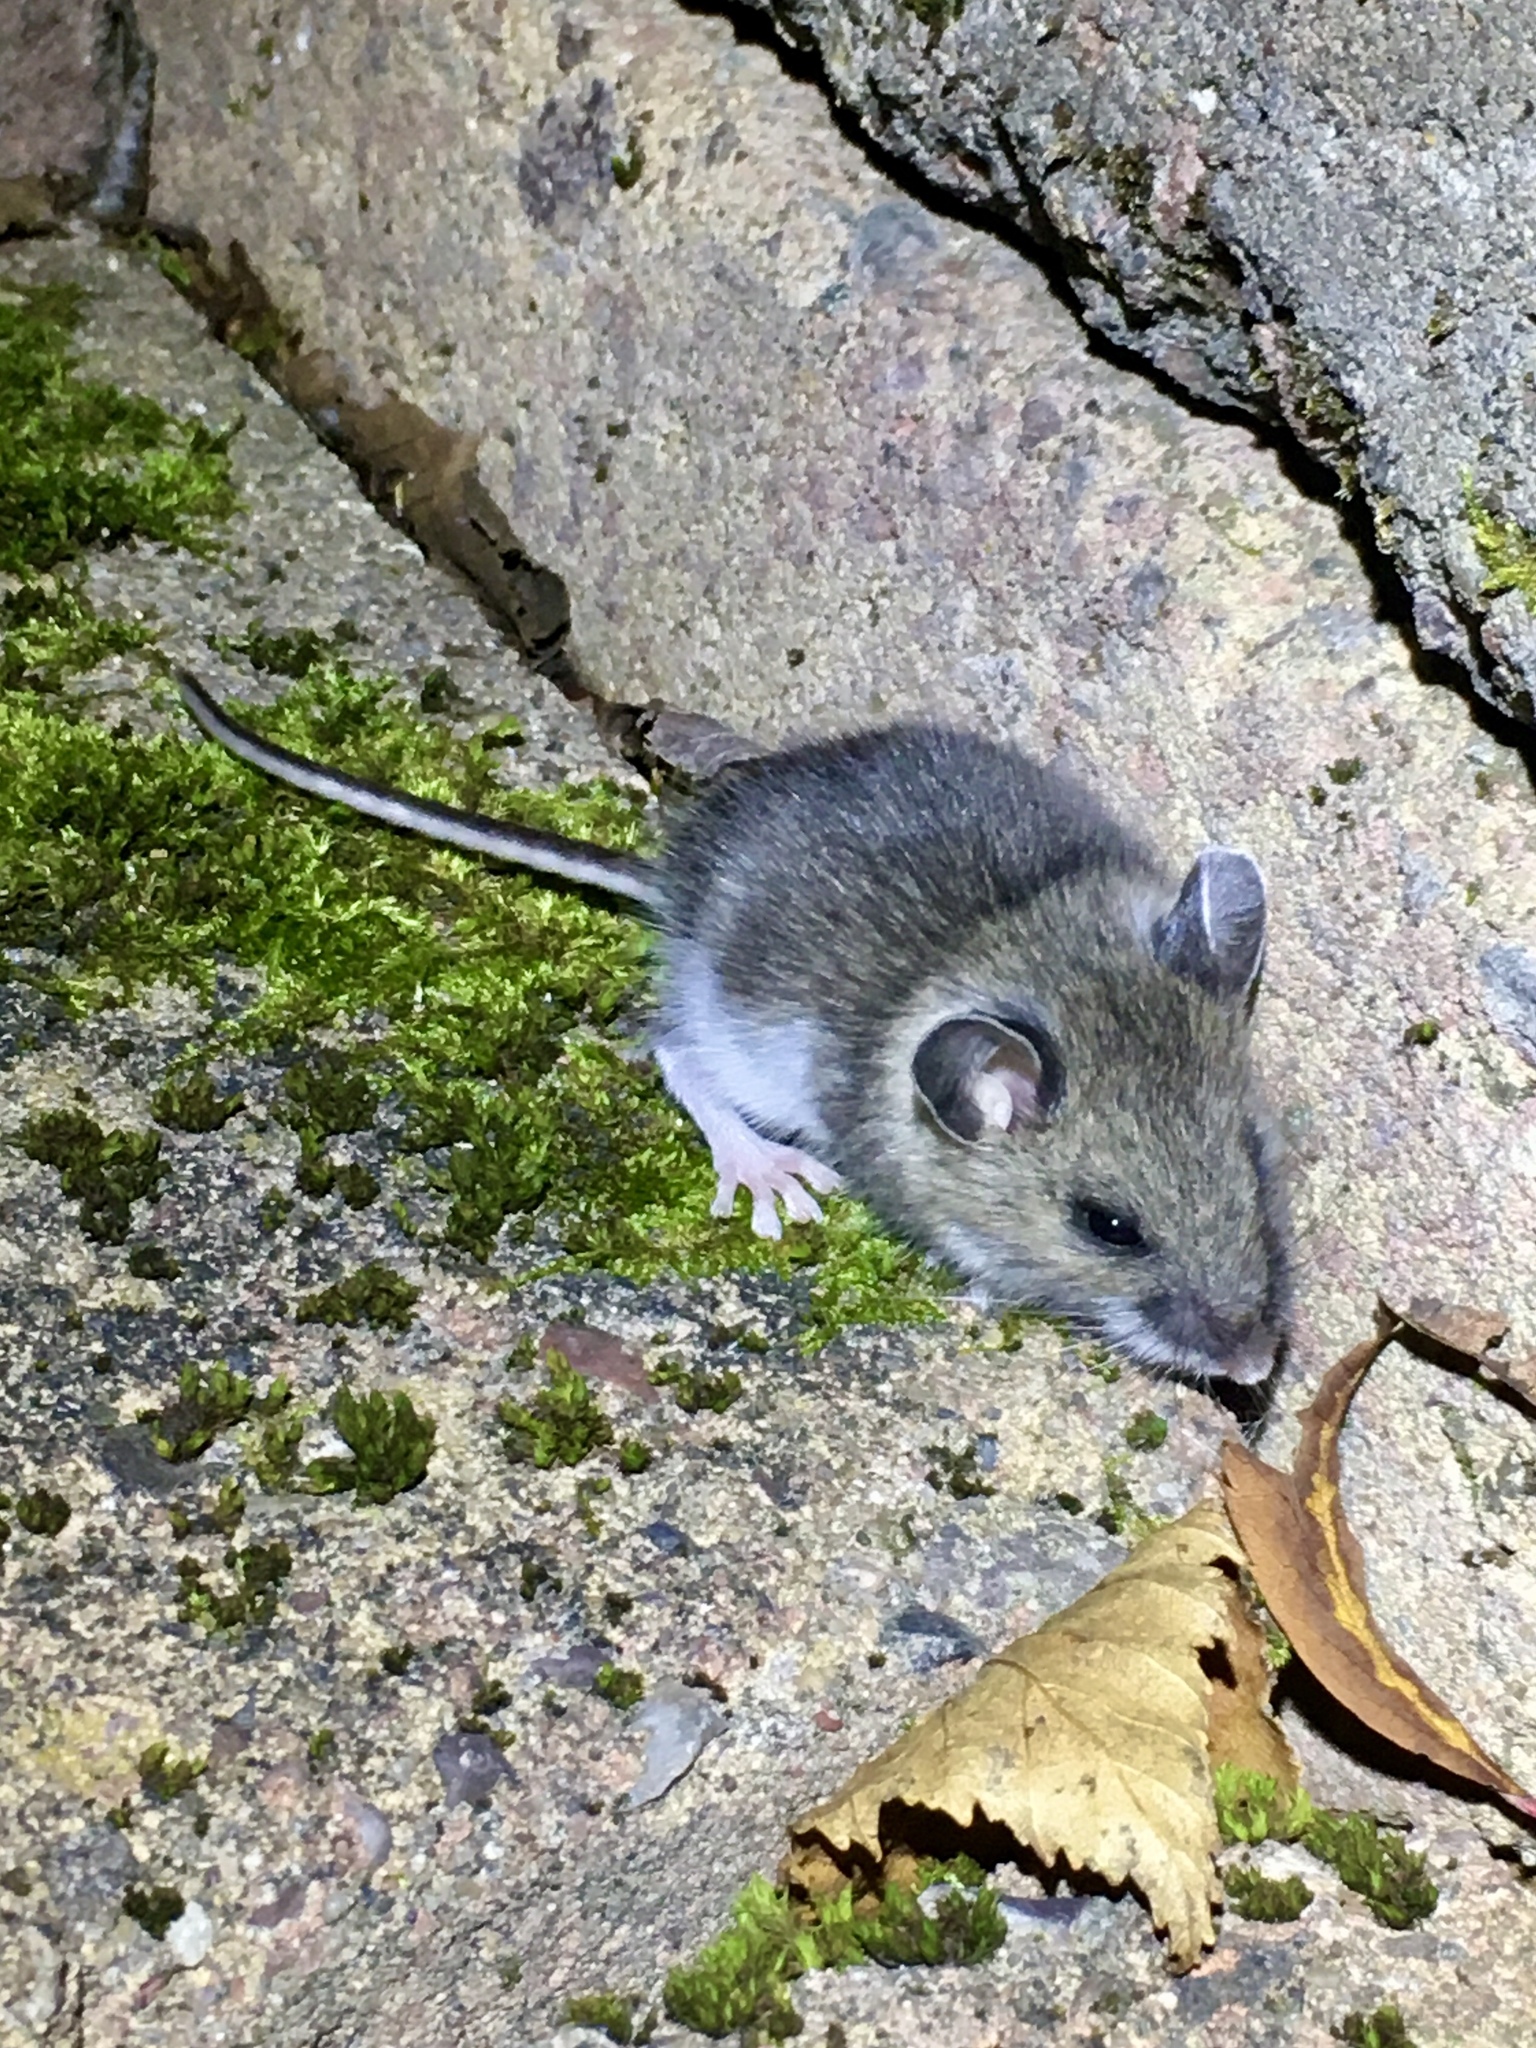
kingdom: Animalia
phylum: Chordata
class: Mammalia
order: Rodentia
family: Cricetidae
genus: Peromyscus
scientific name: Peromyscus maniculatus
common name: Deer mouse
